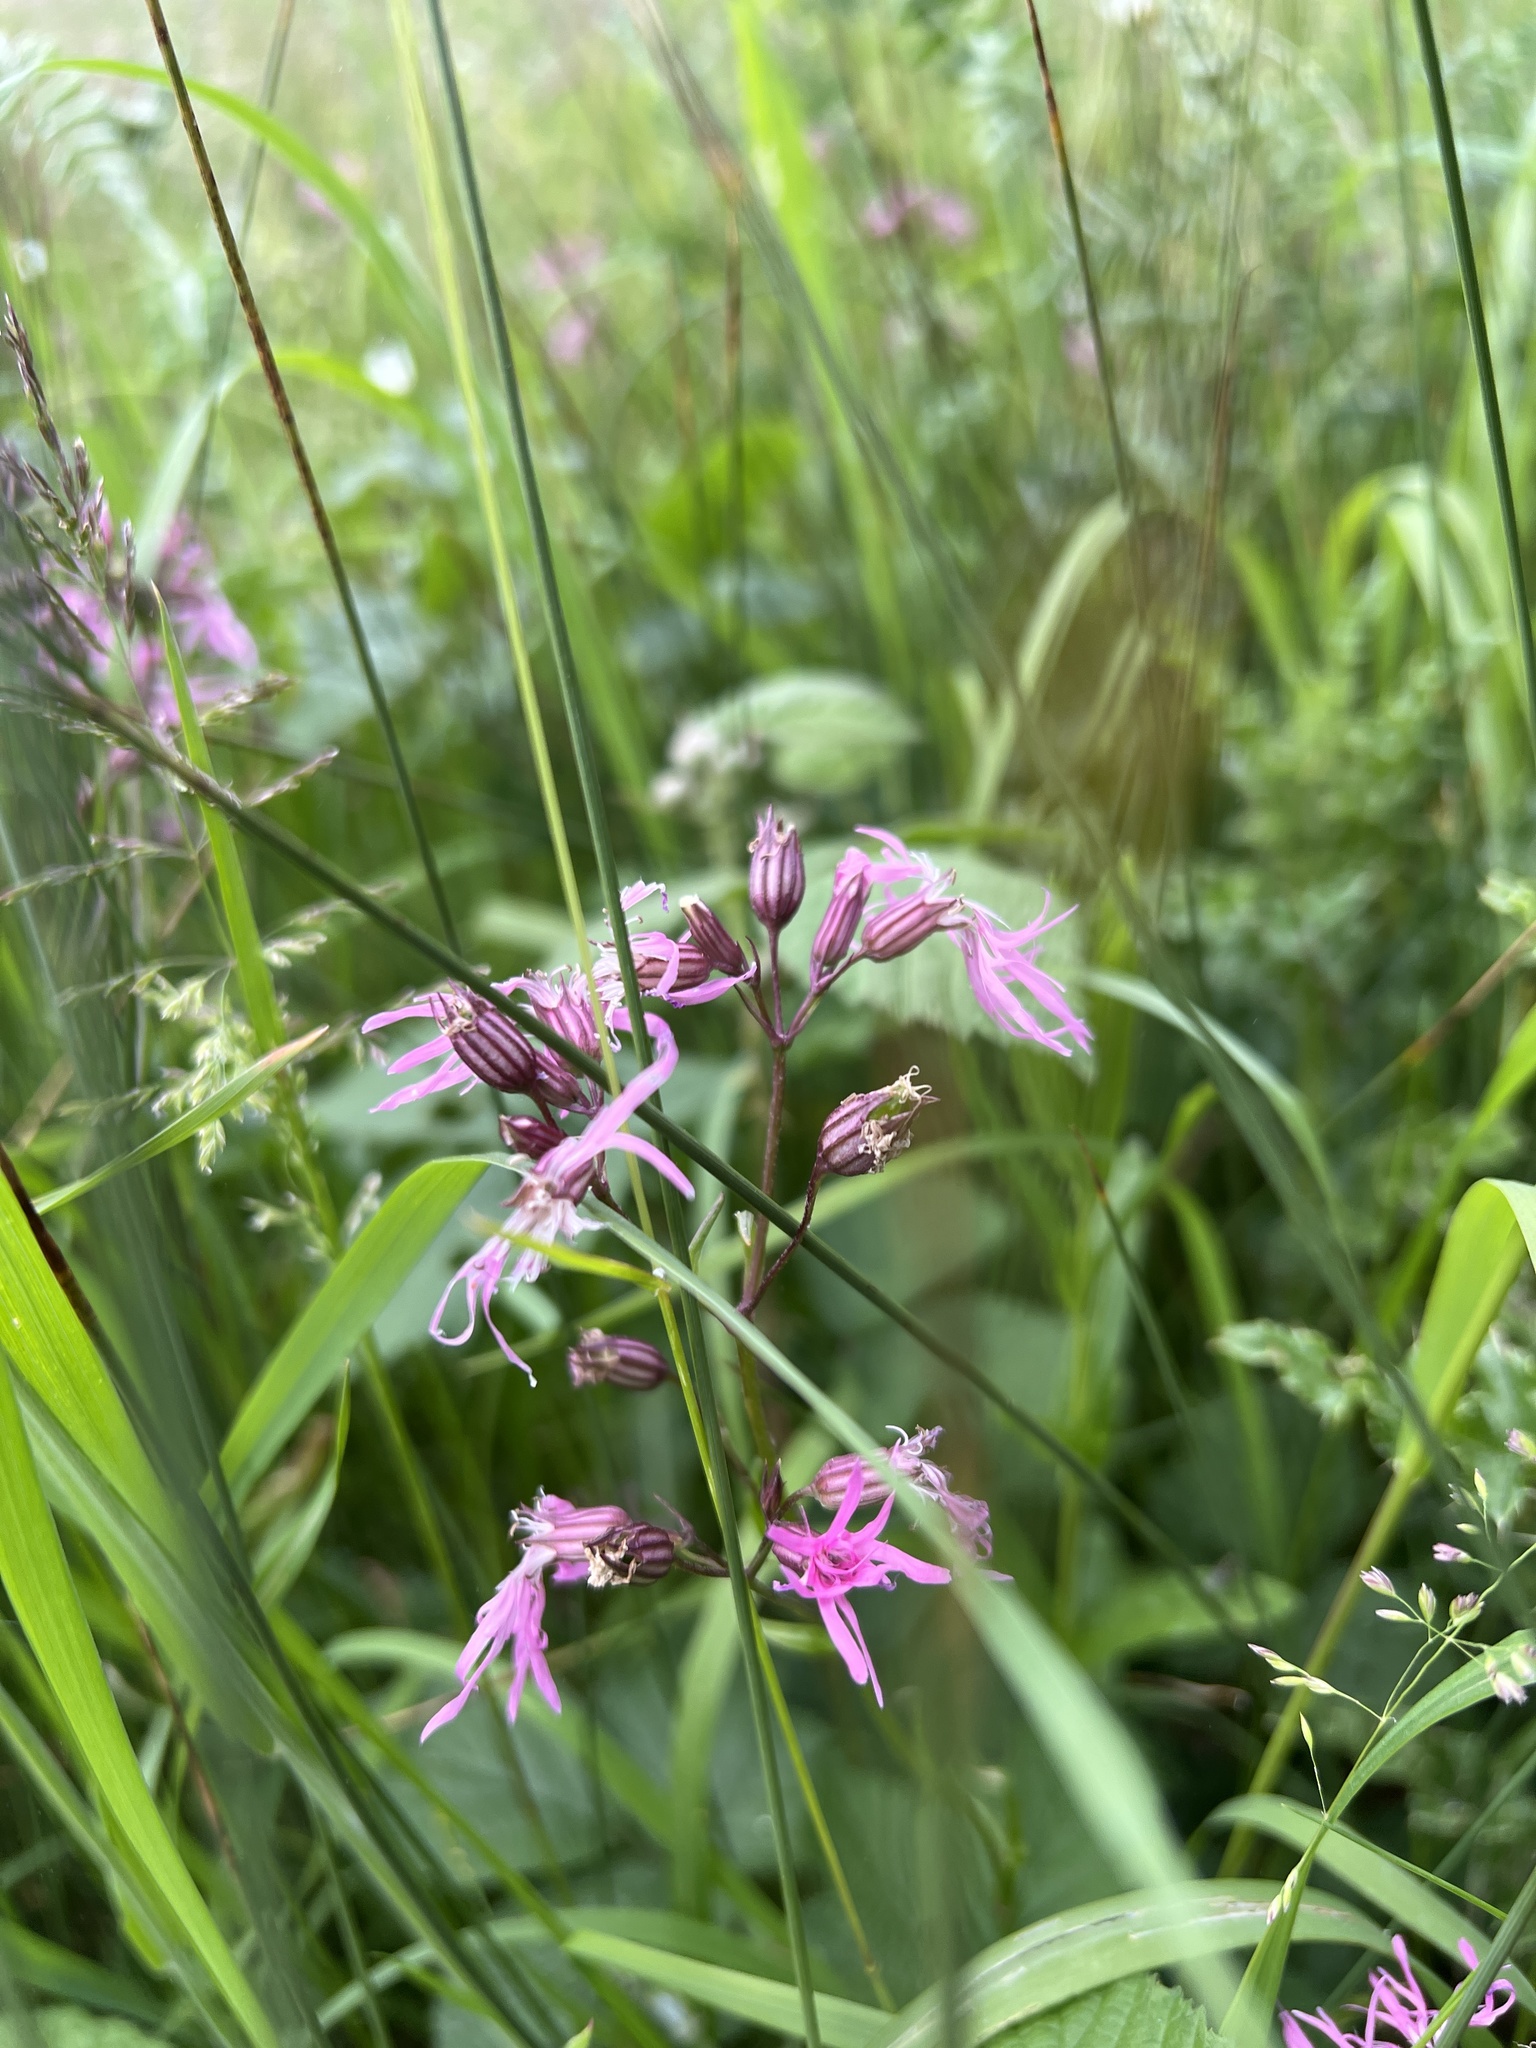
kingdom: Plantae
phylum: Tracheophyta
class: Magnoliopsida
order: Caryophyllales
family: Caryophyllaceae
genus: Silene
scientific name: Silene flos-cuculi
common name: Ragged-robin
